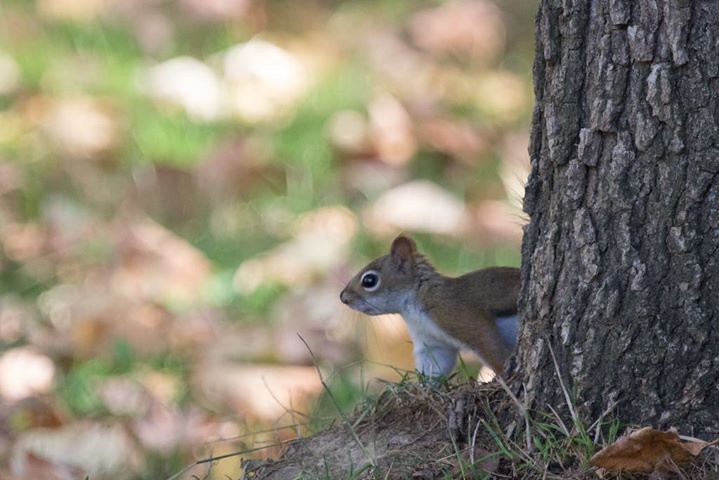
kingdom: Animalia
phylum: Chordata
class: Mammalia
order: Rodentia
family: Sciuridae
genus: Tamiasciurus
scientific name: Tamiasciurus hudsonicus
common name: Red squirrel
